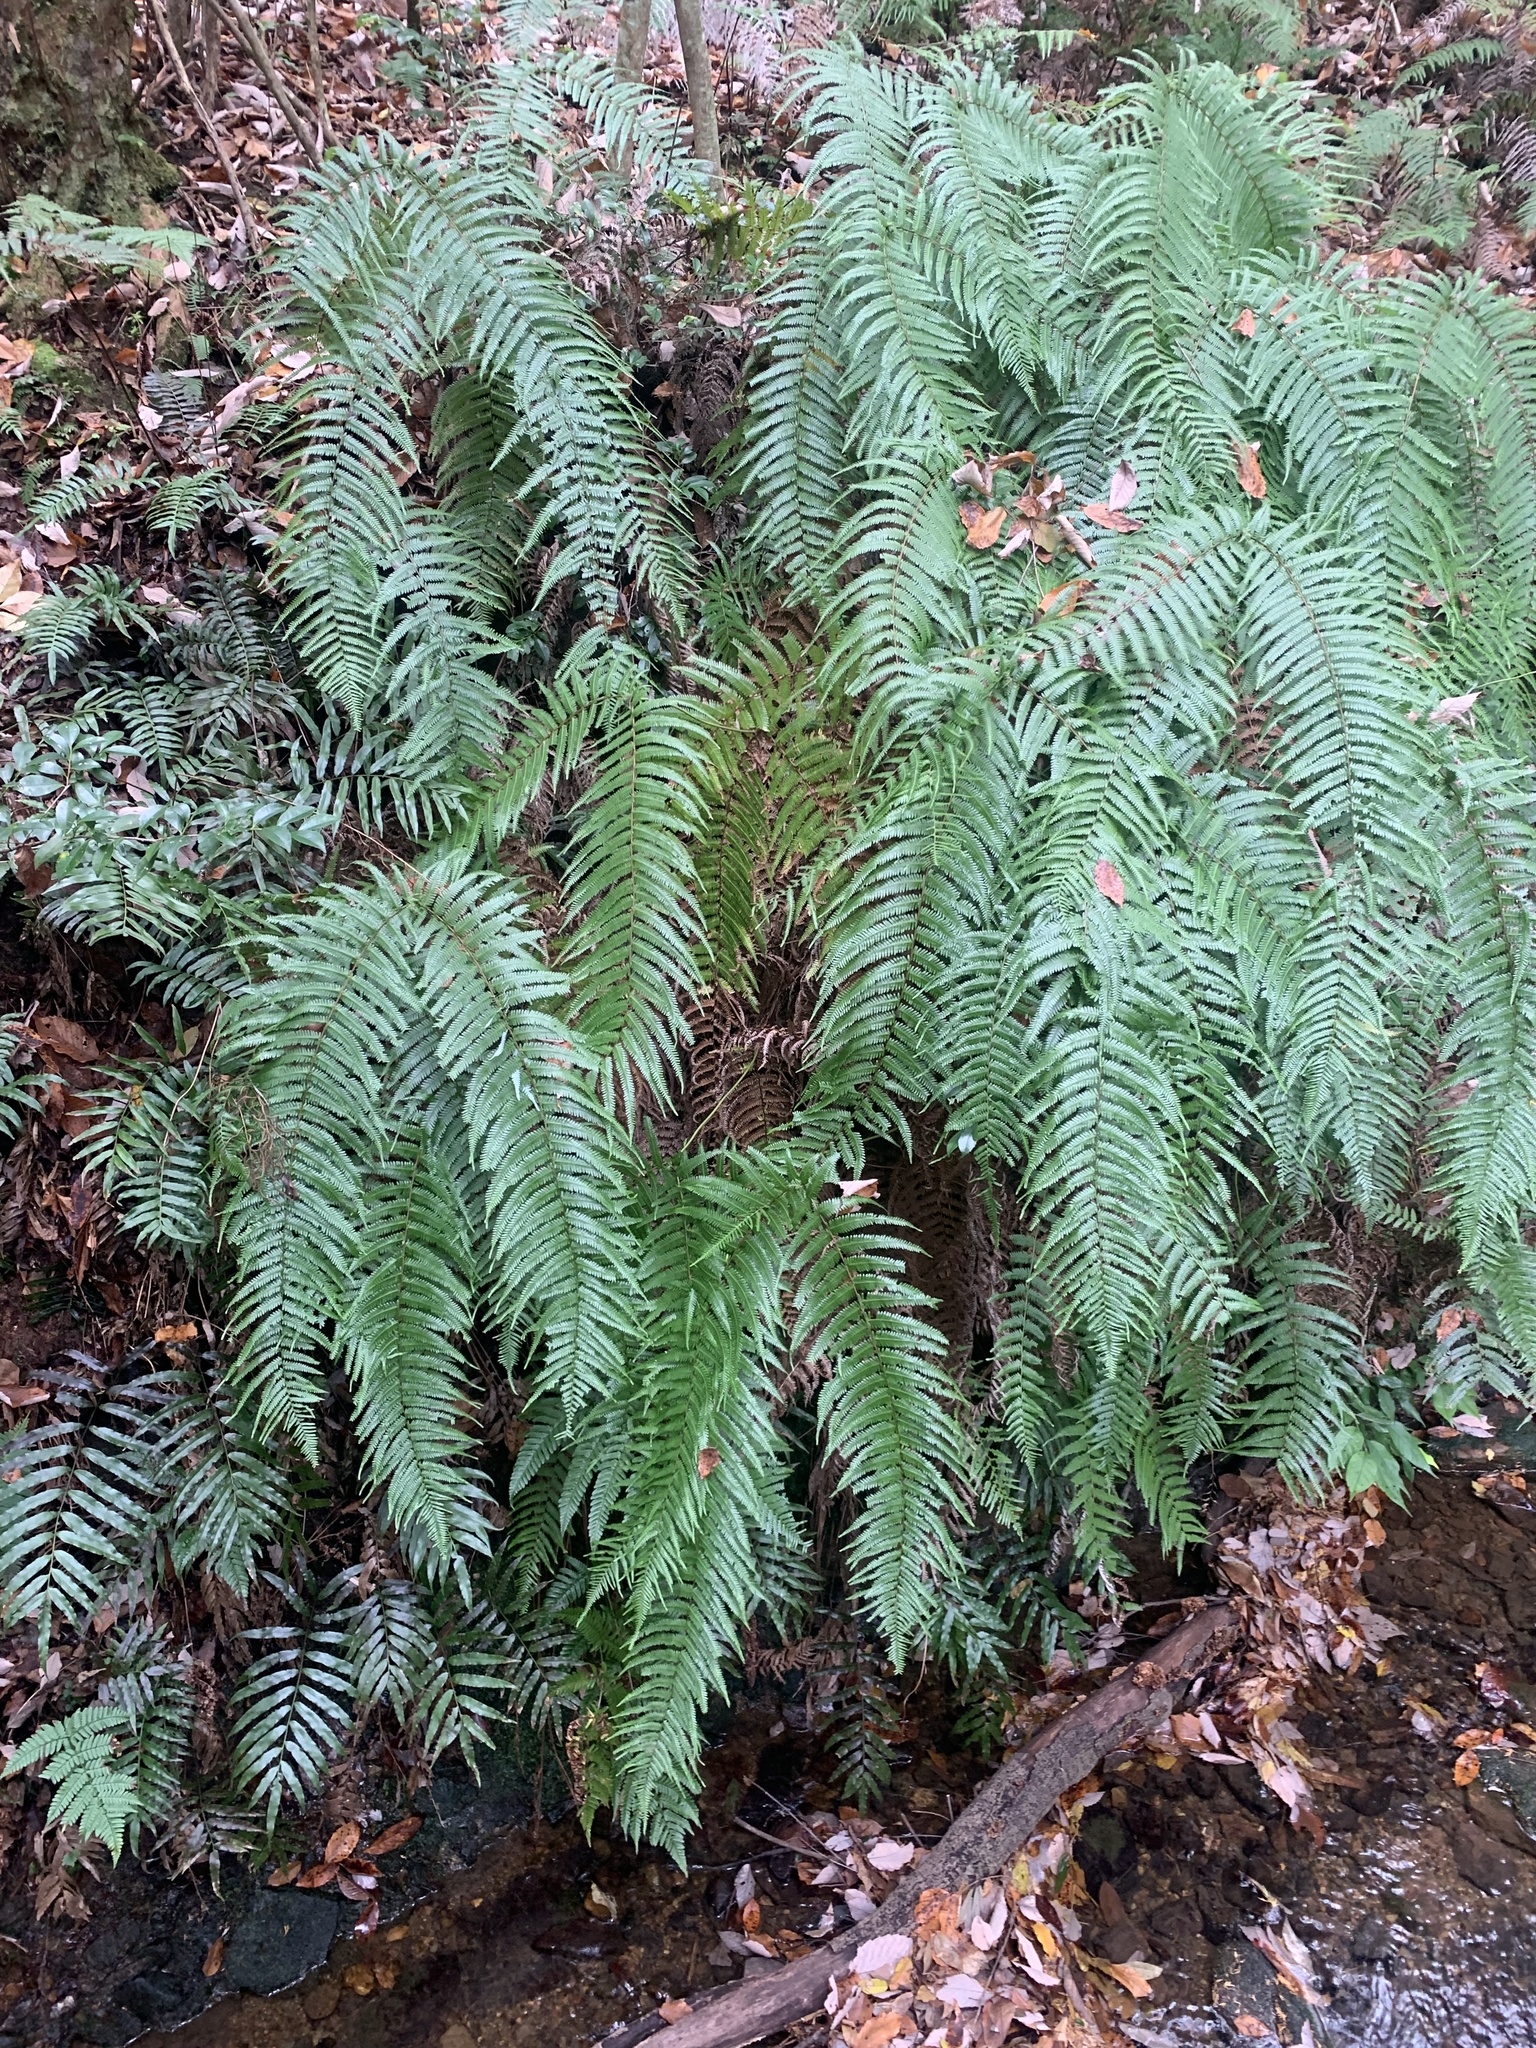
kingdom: Plantae
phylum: Tracheophyta
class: Polypodiopsida
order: Gleicheniales
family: Gleicheniaceae
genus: Diplopterygium
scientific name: Diplopterygium glaucum
